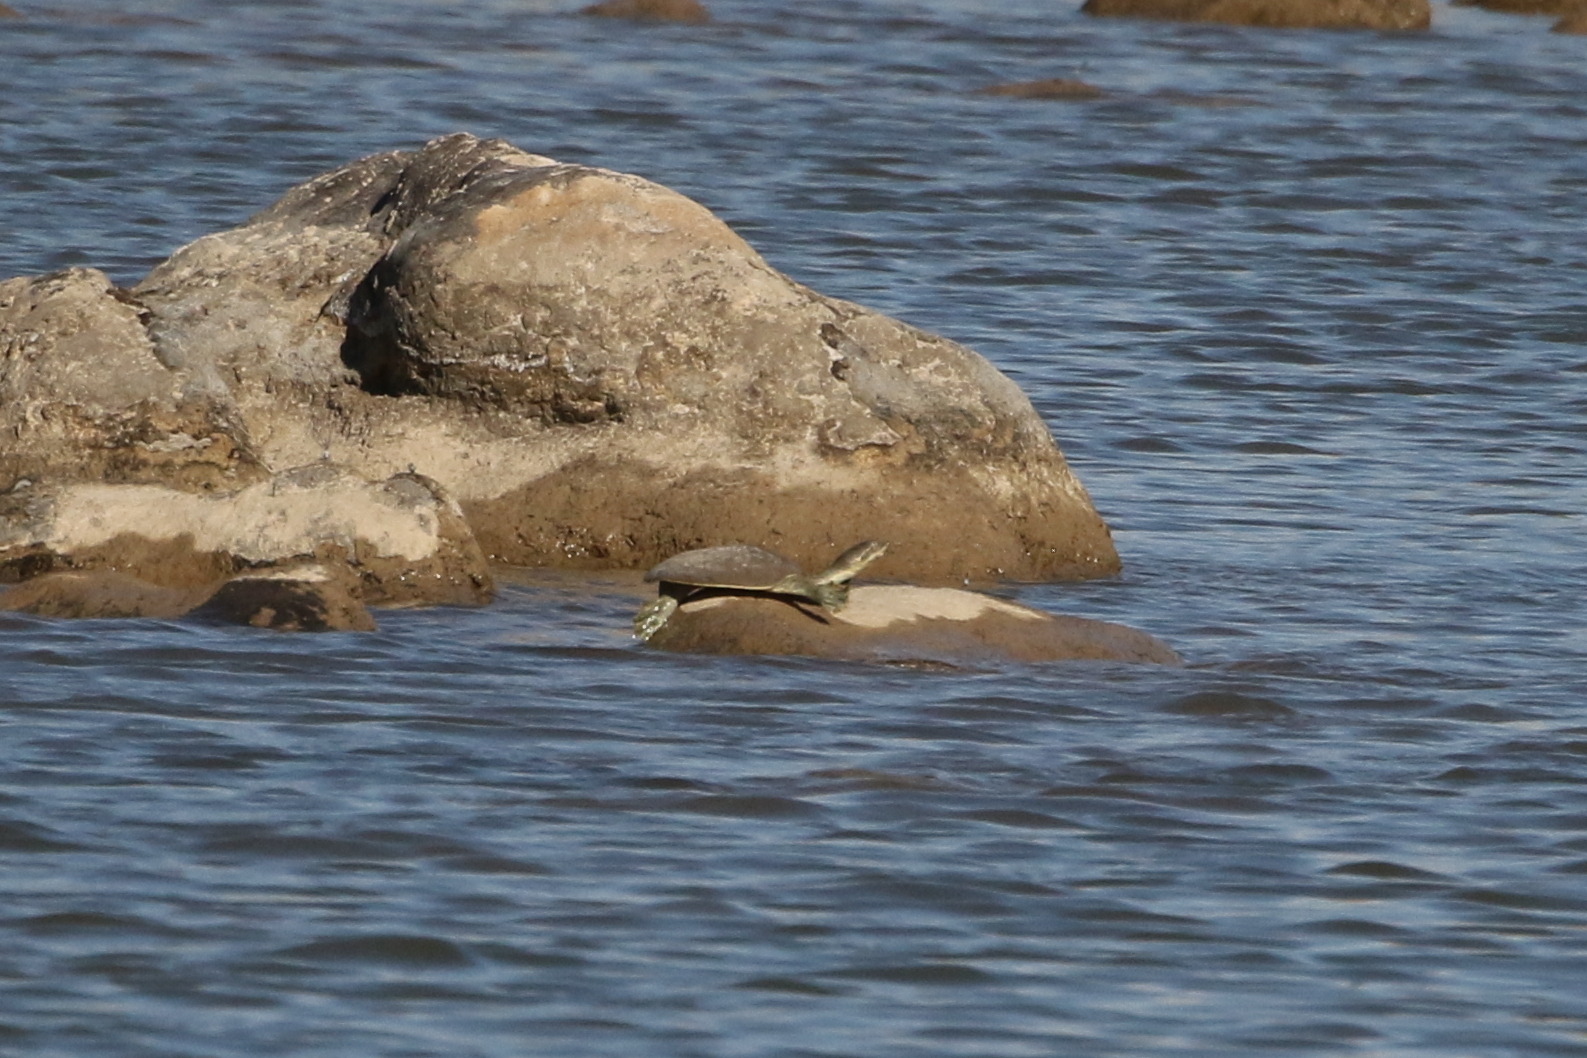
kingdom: Animalia
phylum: Chordata
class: Testudines
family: Trionychidae
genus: Apalone
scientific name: Apalone spinifera
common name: Spiny softshell turtle
